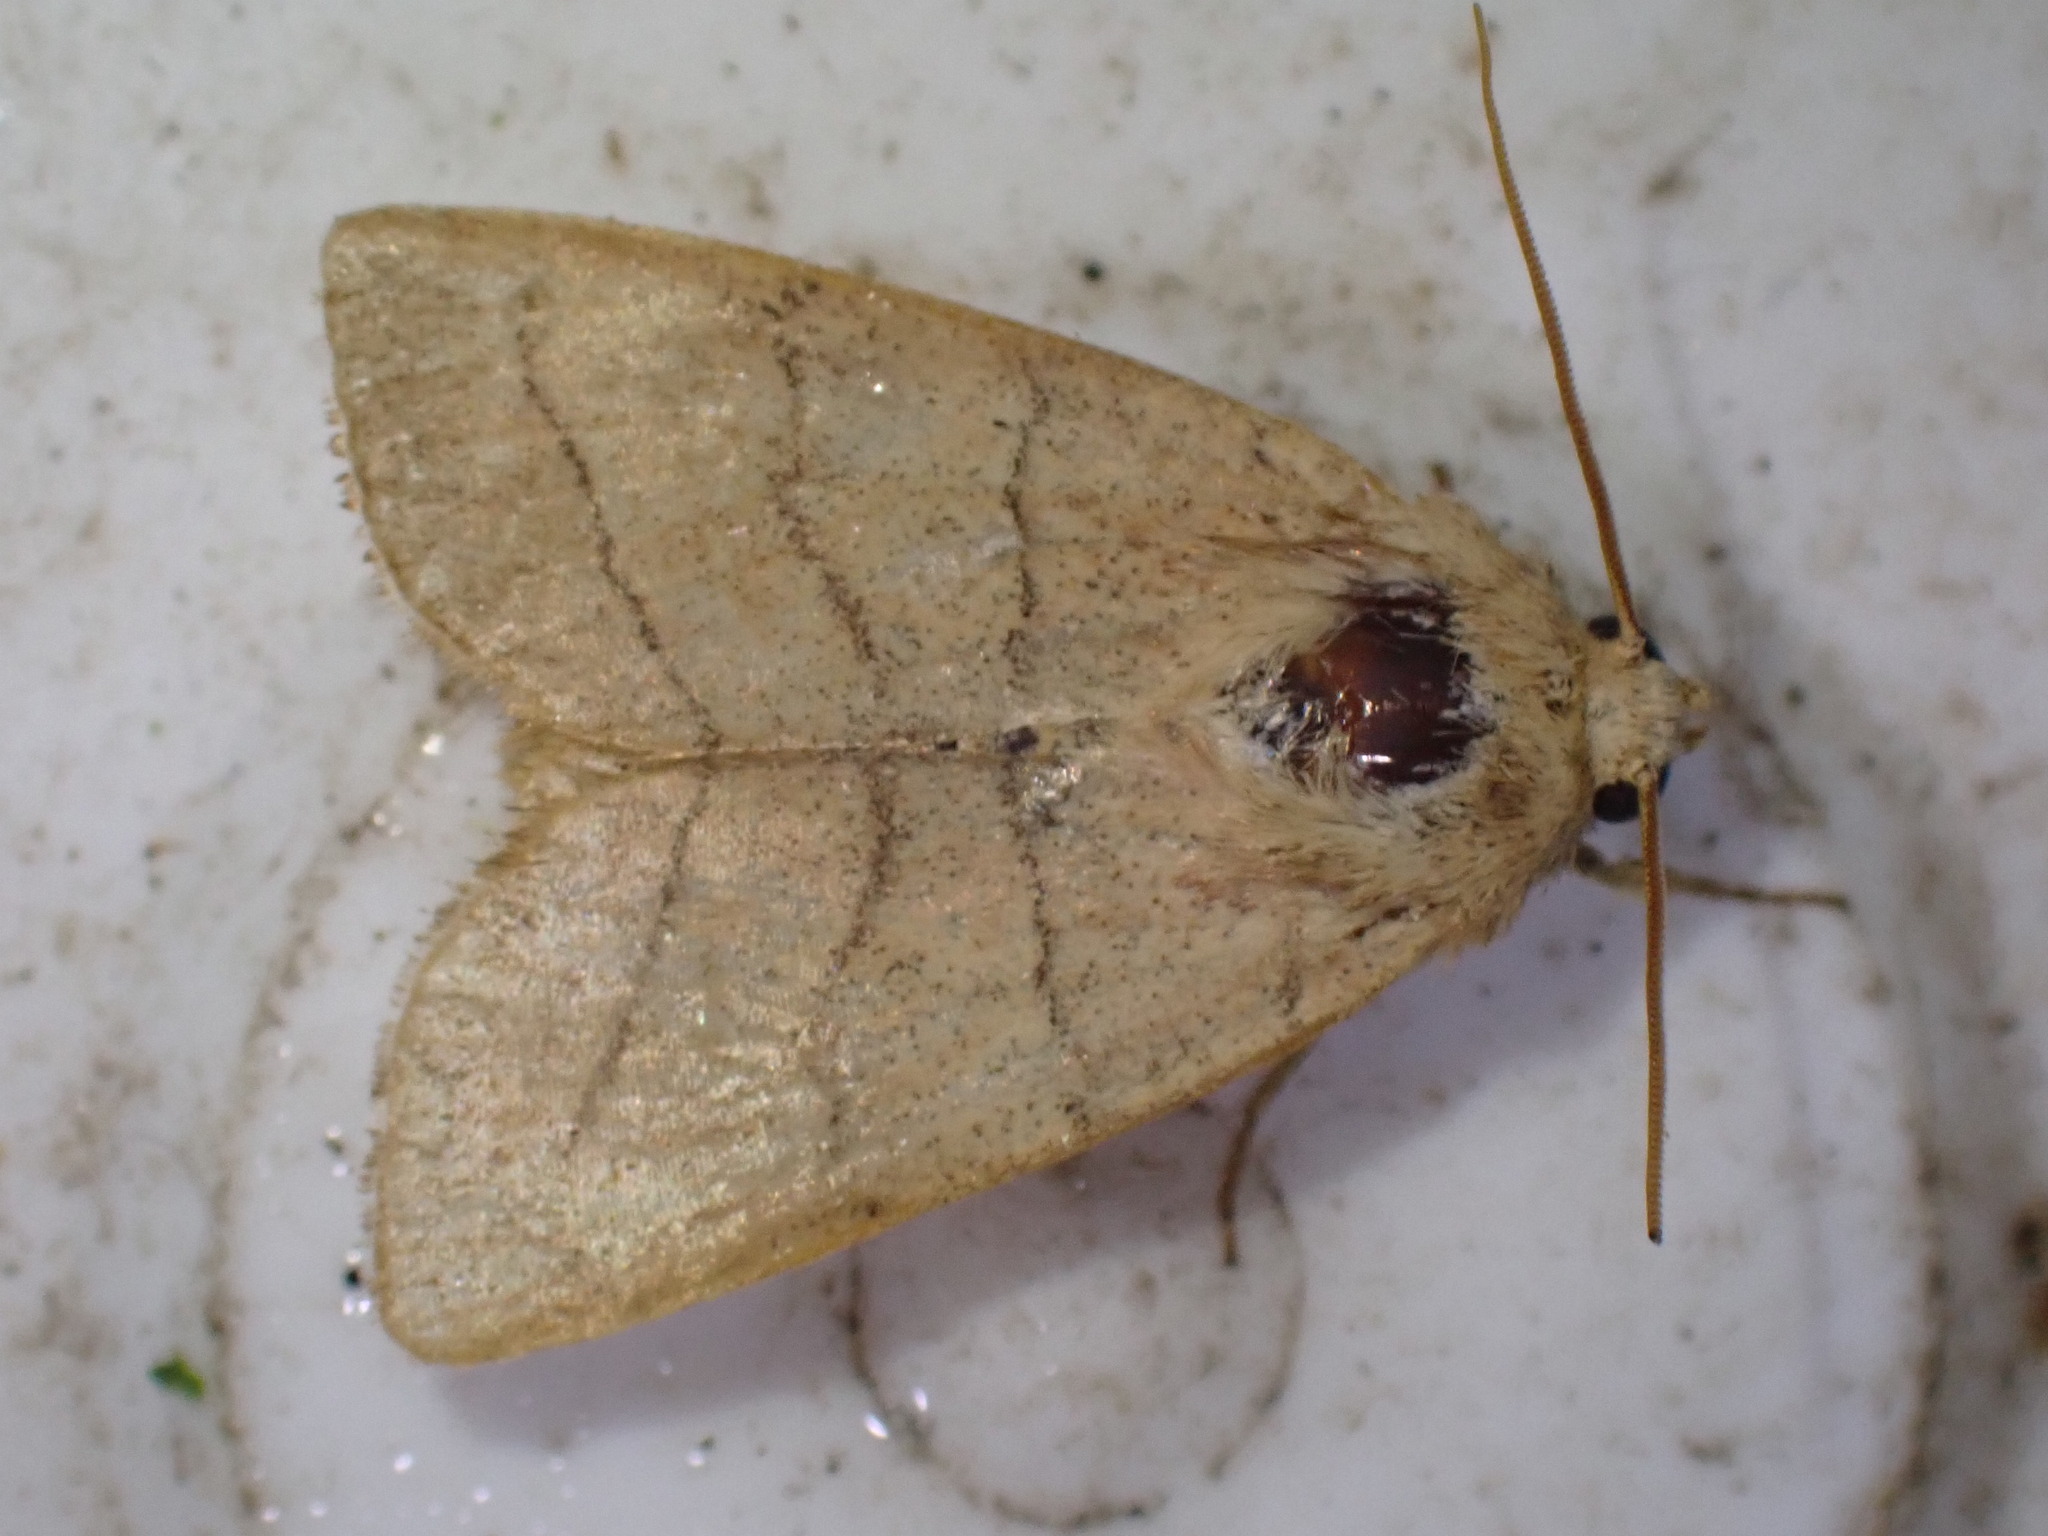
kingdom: Animalia
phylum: Arthropoda
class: Insecta
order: Lepidoptera
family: Noctuidae
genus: Charanyca
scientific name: Charanyca trigrammica
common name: Treble lines
